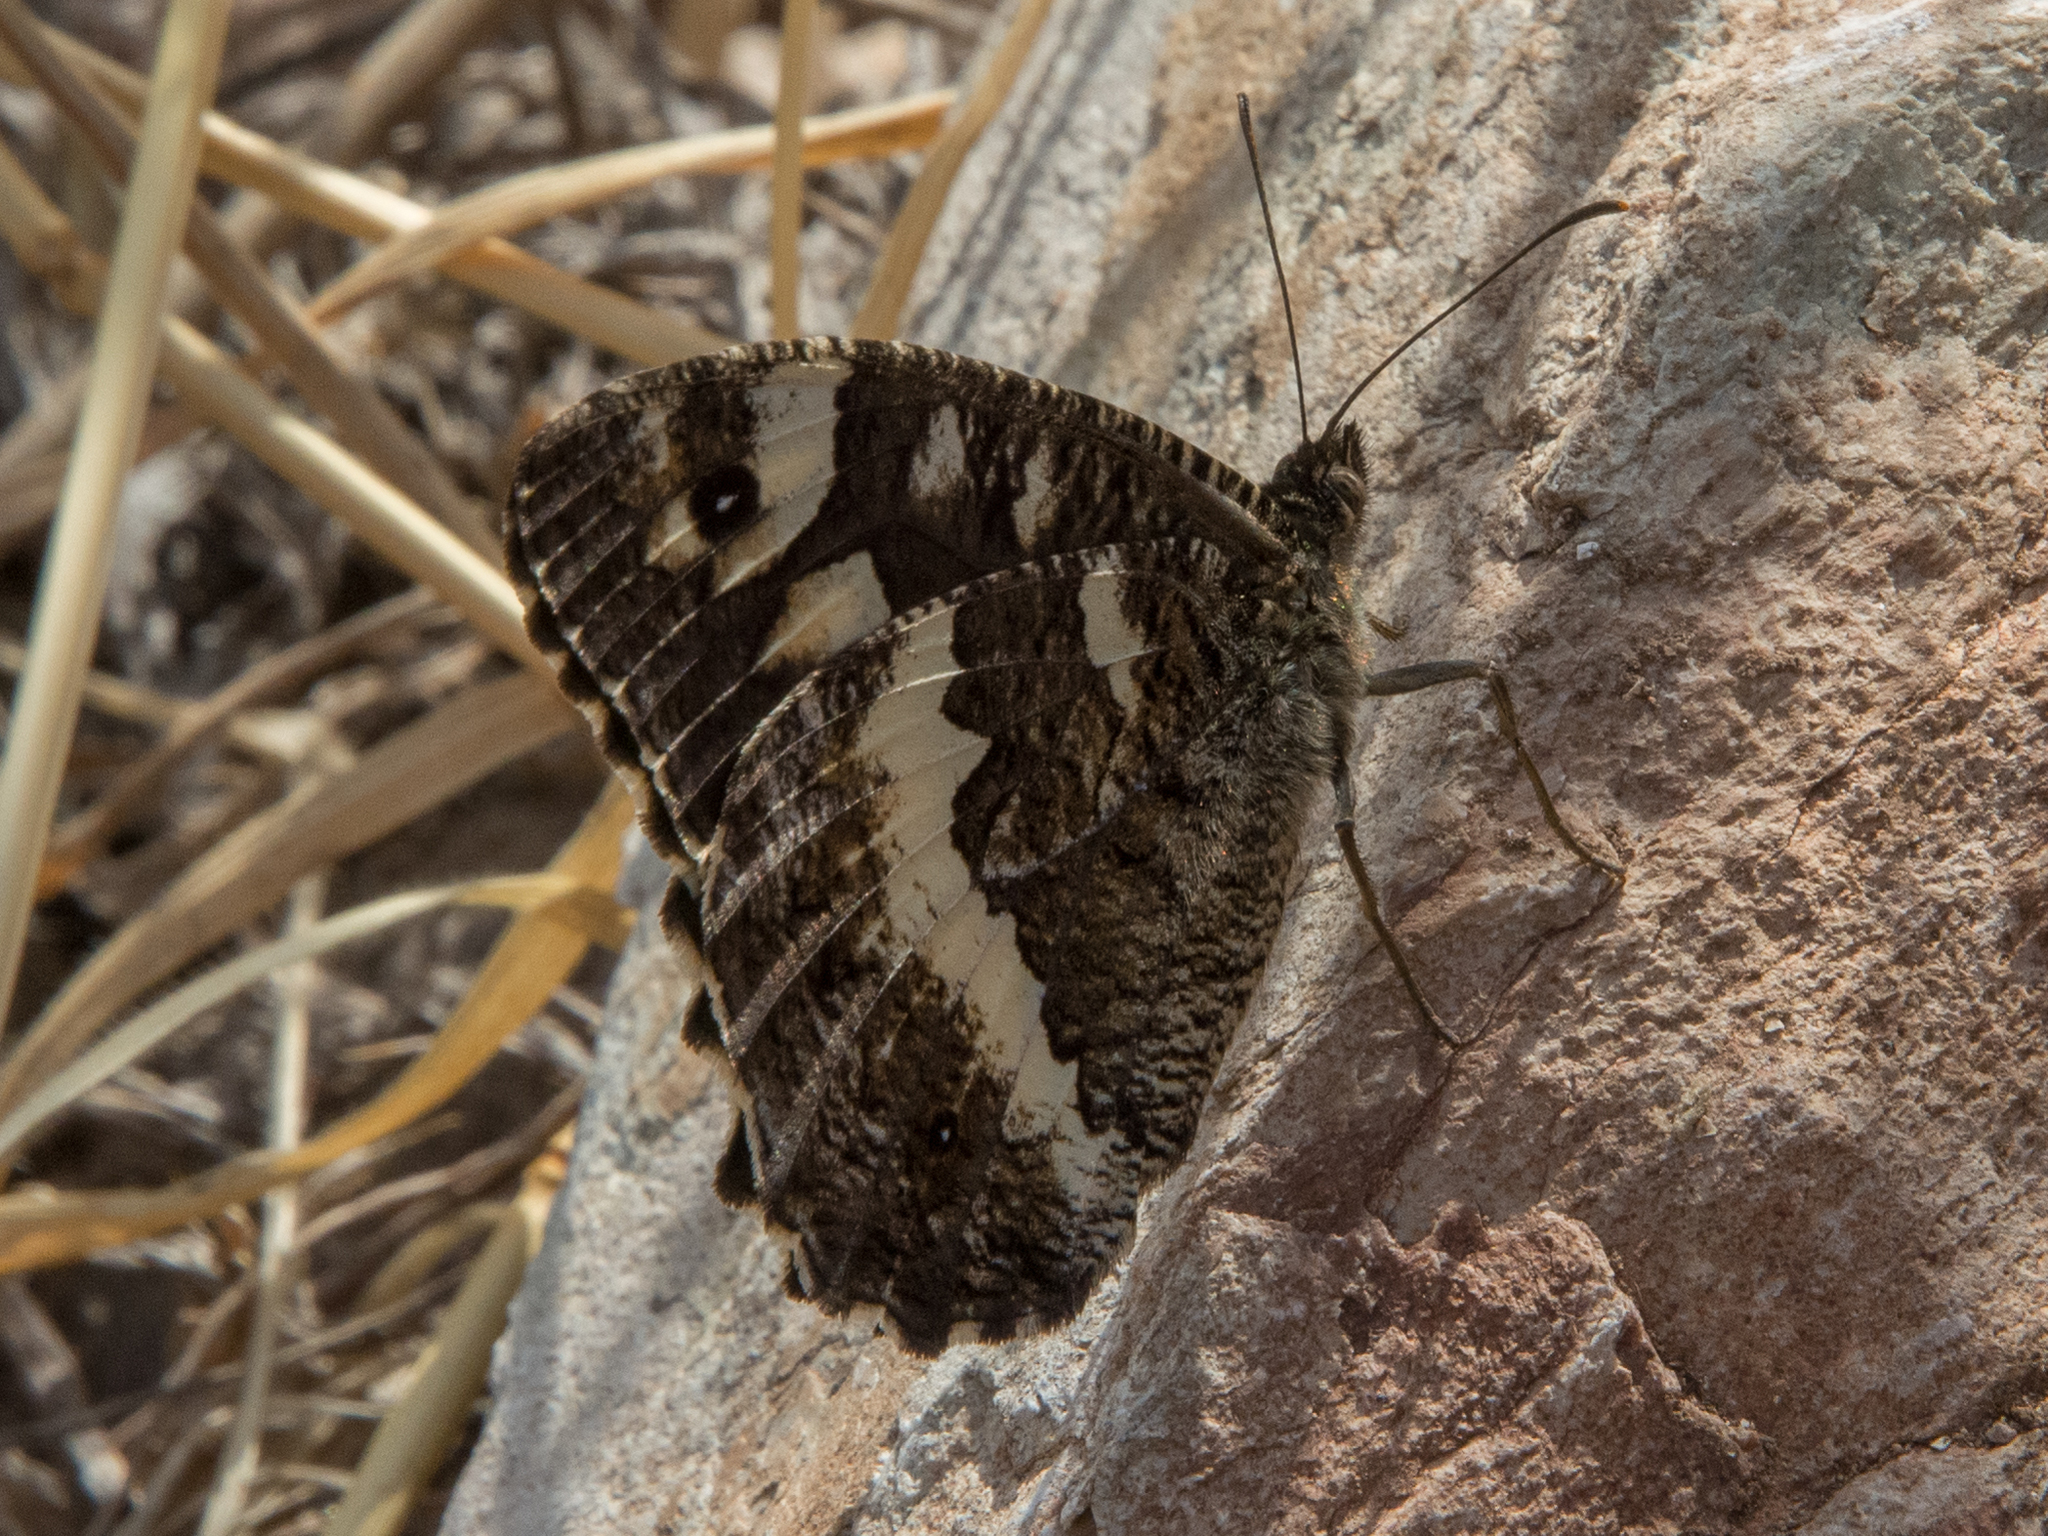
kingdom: Animalia
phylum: Arthropoda
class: Insecta
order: Lepidoptera
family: Lycaenidae
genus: Loweia
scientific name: Loweia tityrus
